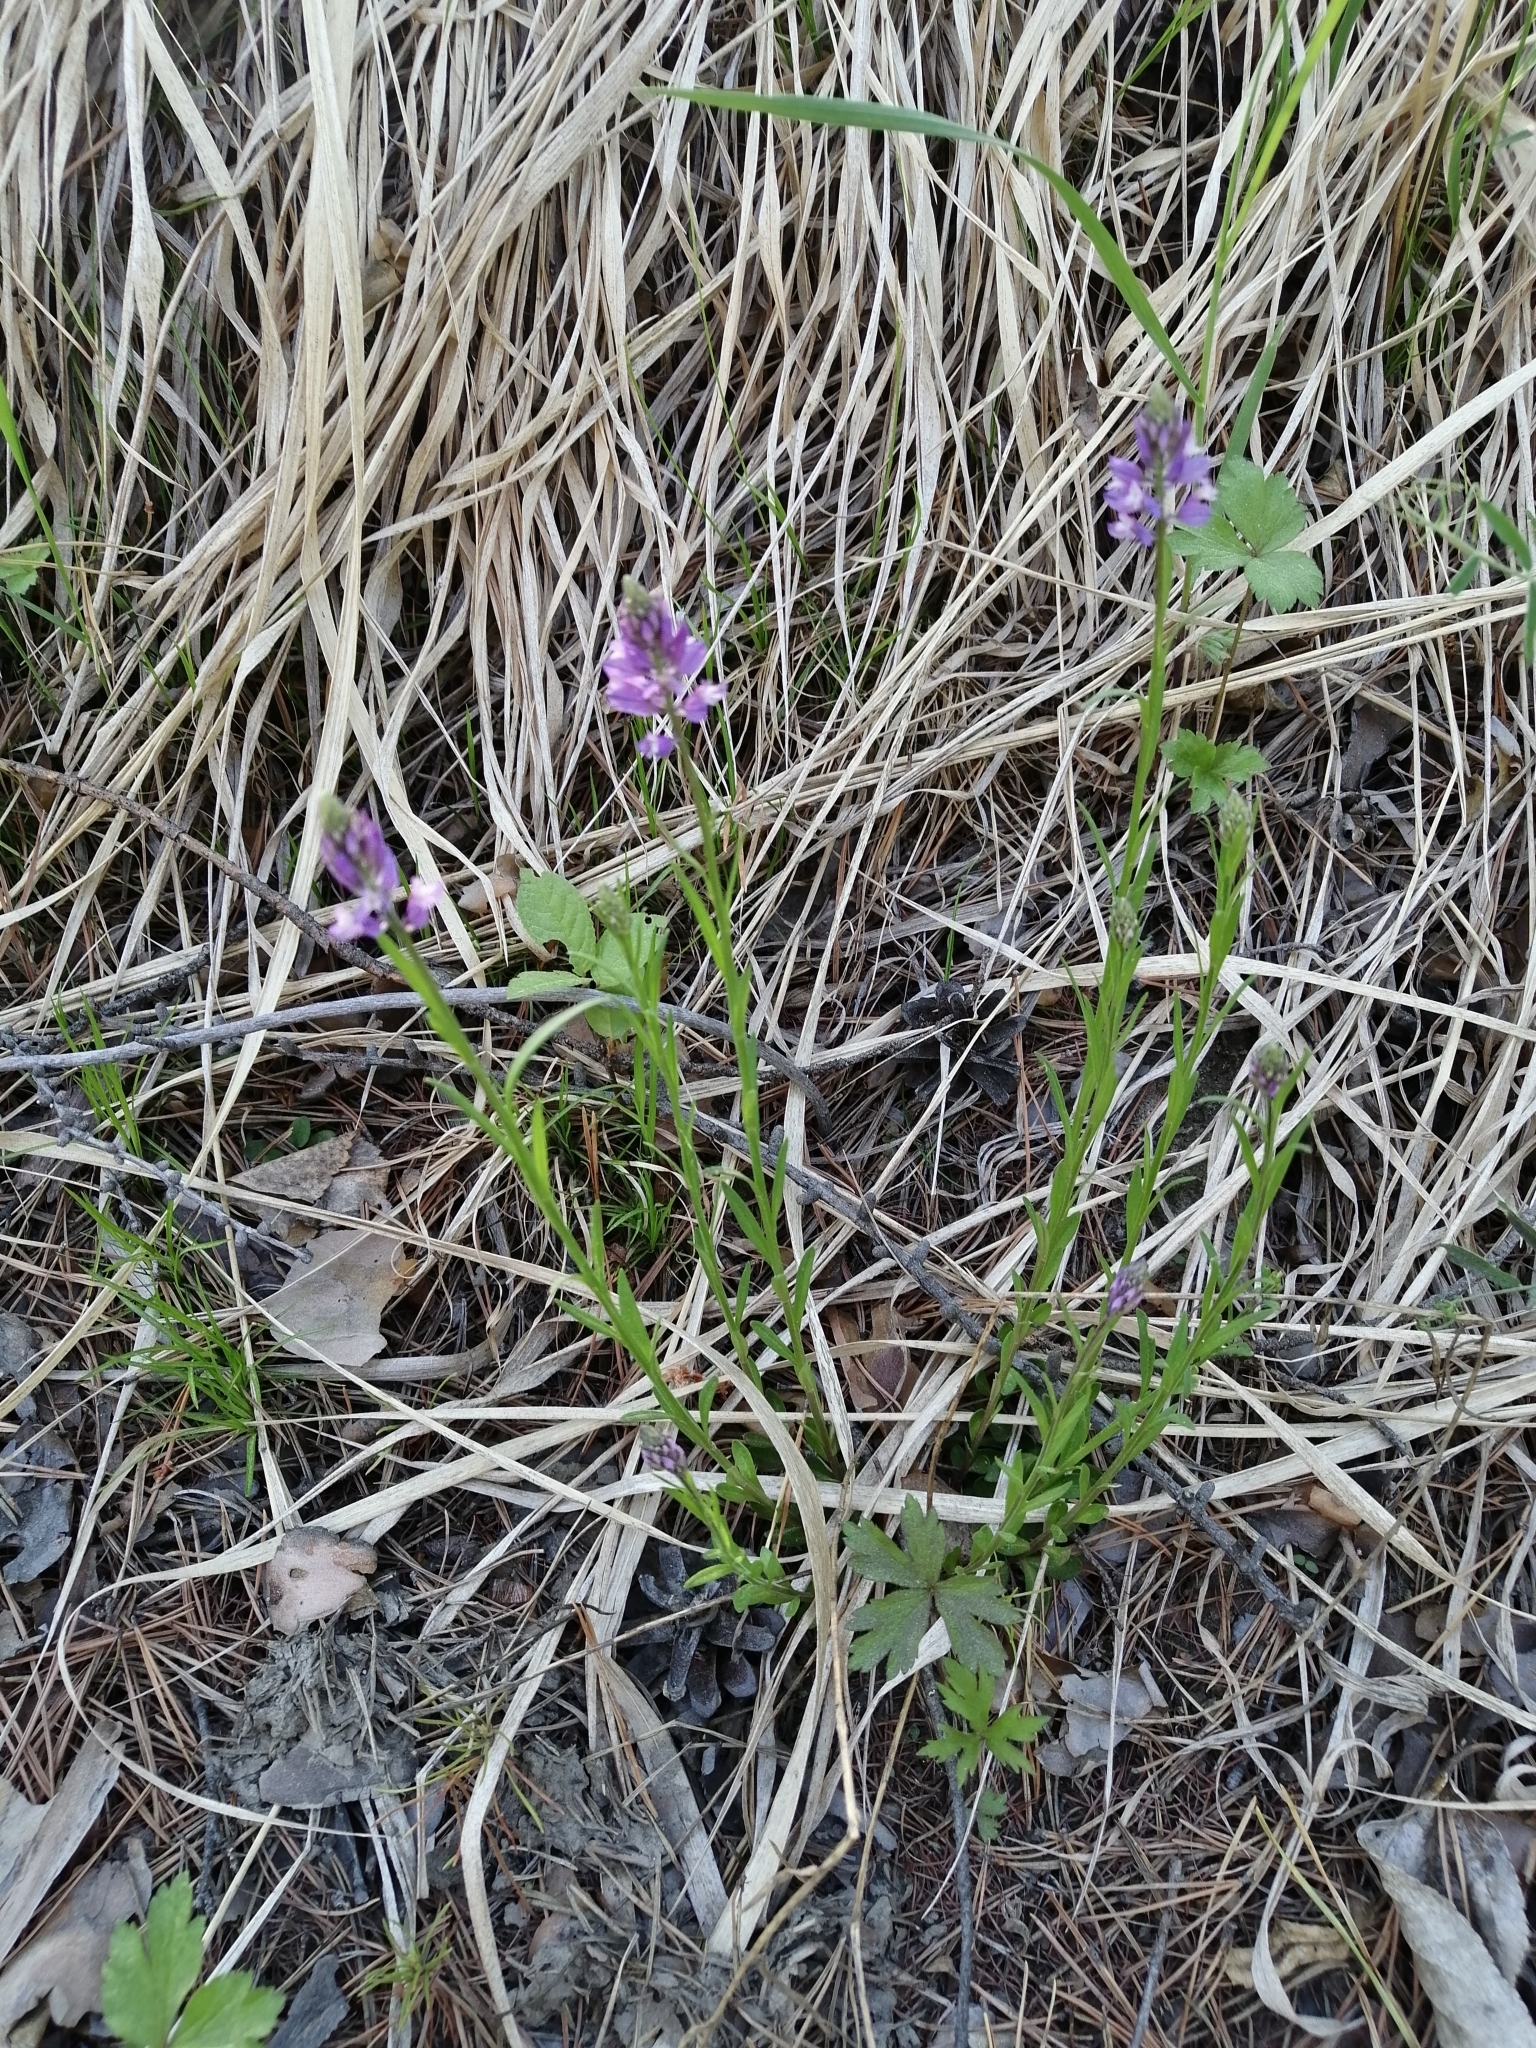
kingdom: Plantae
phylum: Tracheophyta
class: Magnoliopsida
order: Fabales
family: Polygalaceae
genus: Polygala
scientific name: Polygala comosa
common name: Tufted milkwort
